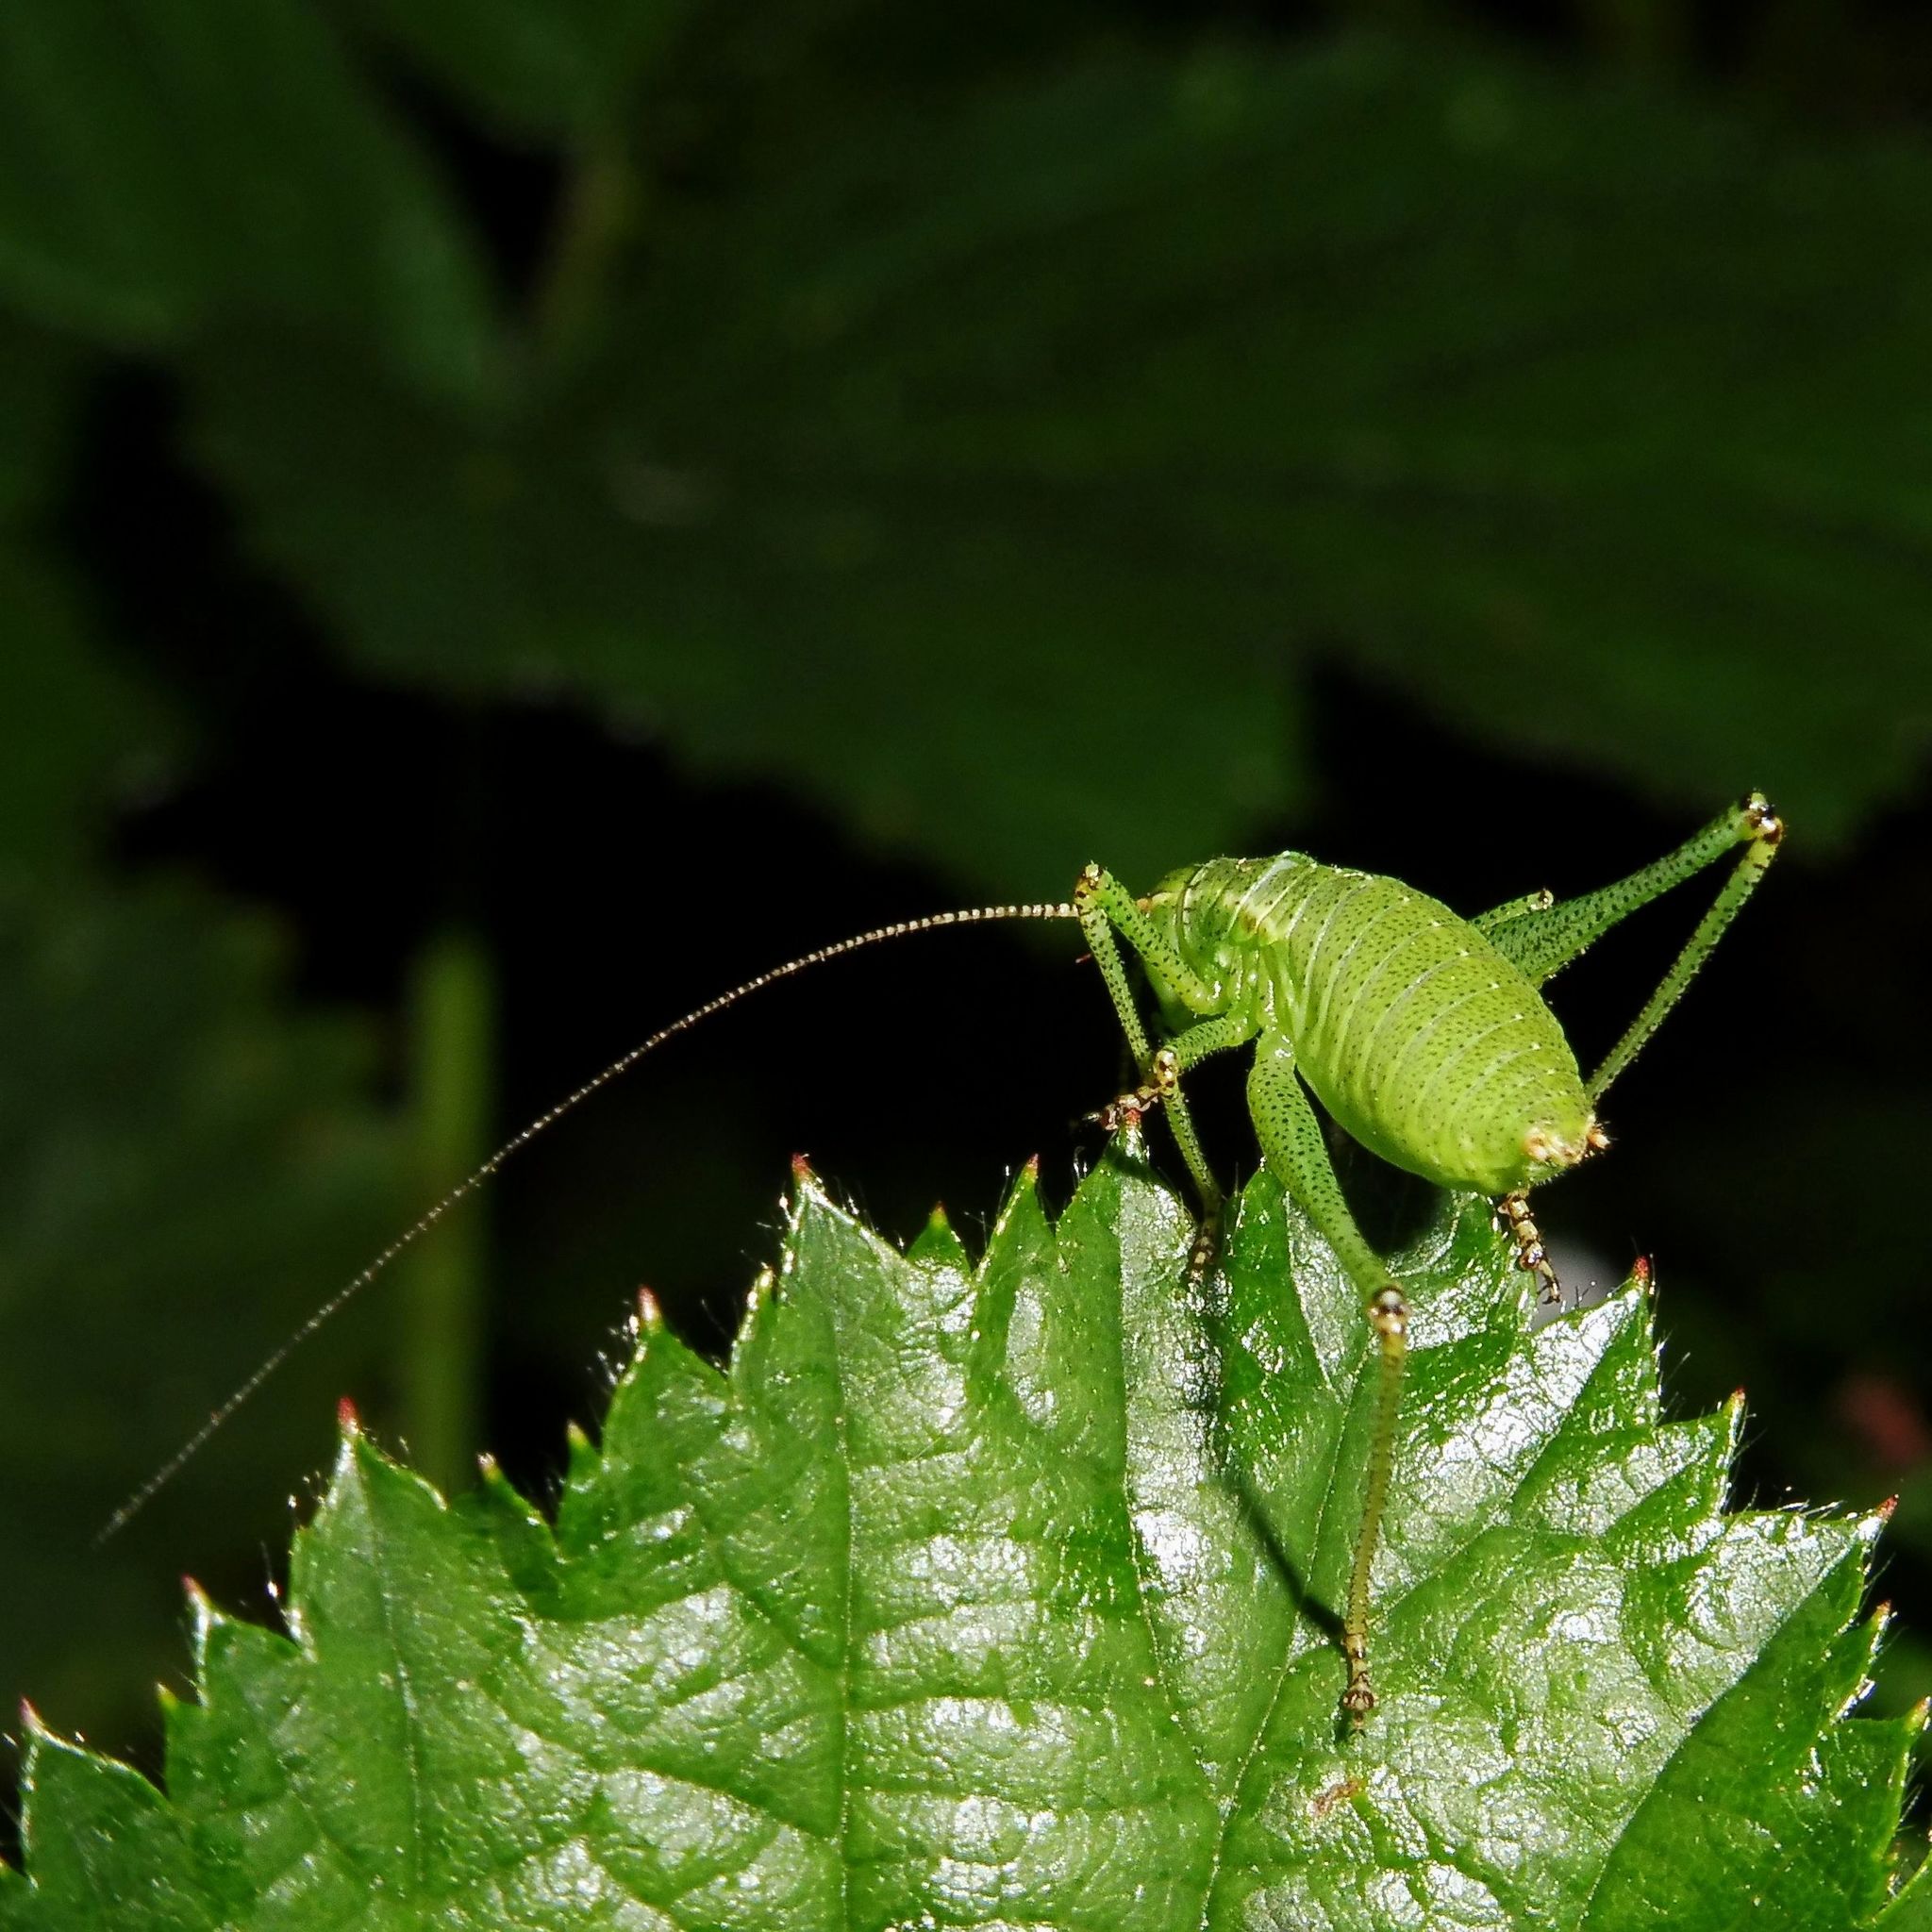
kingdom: Animalia
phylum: Arthropoda
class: Insecta
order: Orthoptera
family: Tettigoniidae
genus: Leptophyes
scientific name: Leptophyes punctatissima
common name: Speckled bush-cricket
